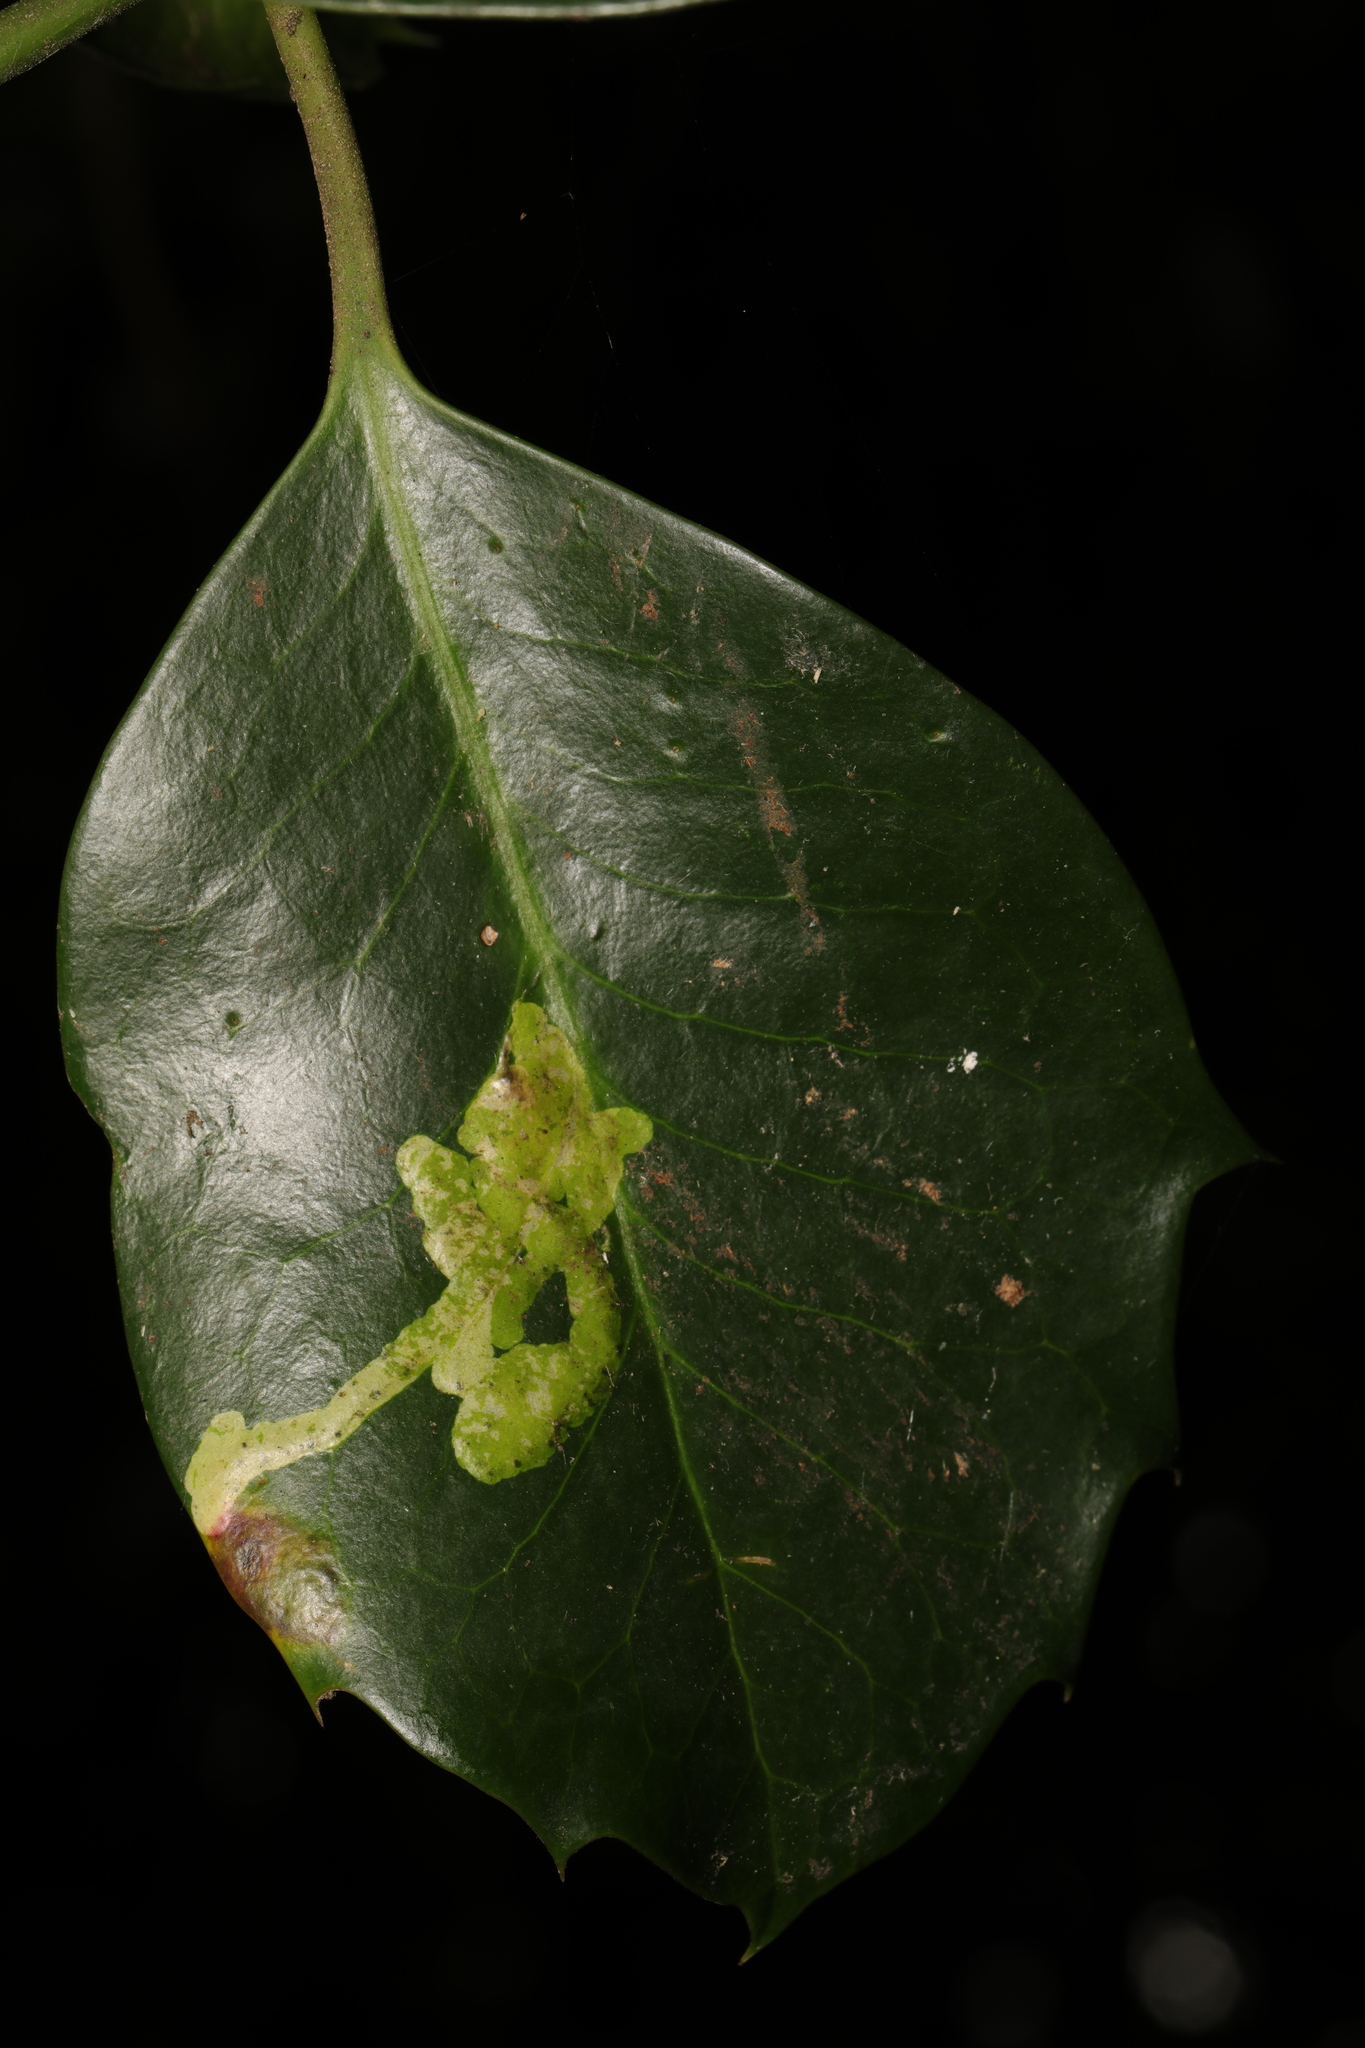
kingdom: Animalia
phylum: Arthropoda
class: Insecta
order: Diptera
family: Agromyzidae
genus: Phytomyza
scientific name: Phytomyza ilicis
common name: Holly leafminer
